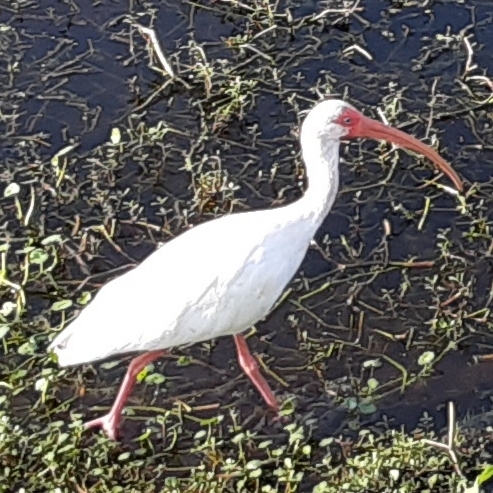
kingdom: Animalia
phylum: Chordata
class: Aves
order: Pelecaniformes
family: Threskiornithidae
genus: Eudocimus
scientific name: Eudocimus albus
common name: White ibis
